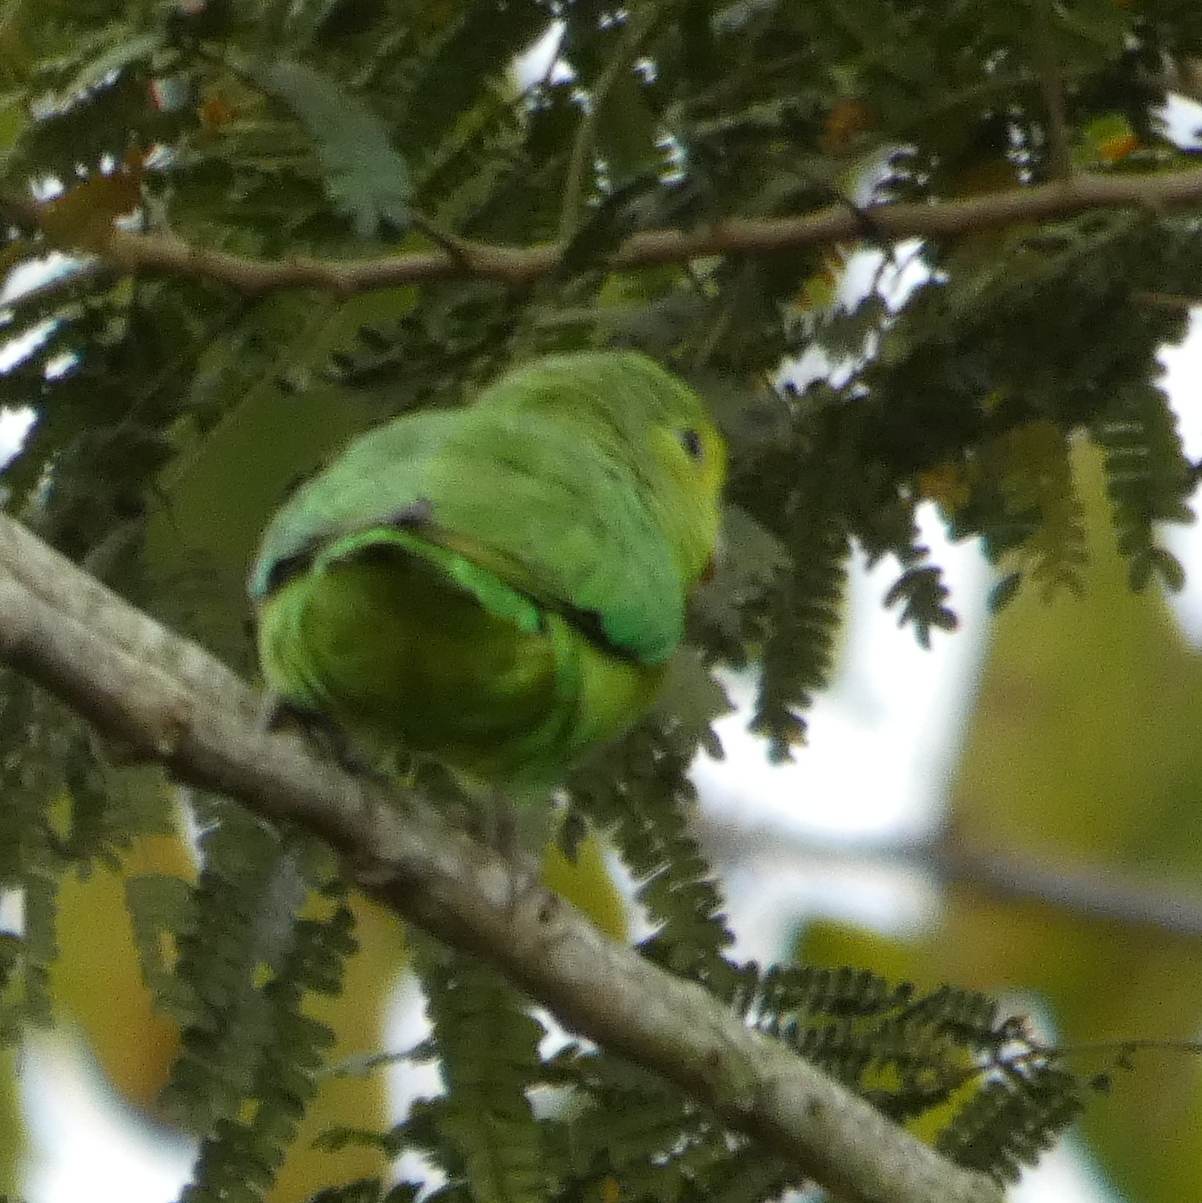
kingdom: Animalia
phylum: Chordata
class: Aves
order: Psittaciformes
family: Psittacidae
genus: Forpus
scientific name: Forpus xanthopterygius
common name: Blue-winged parrotlet
